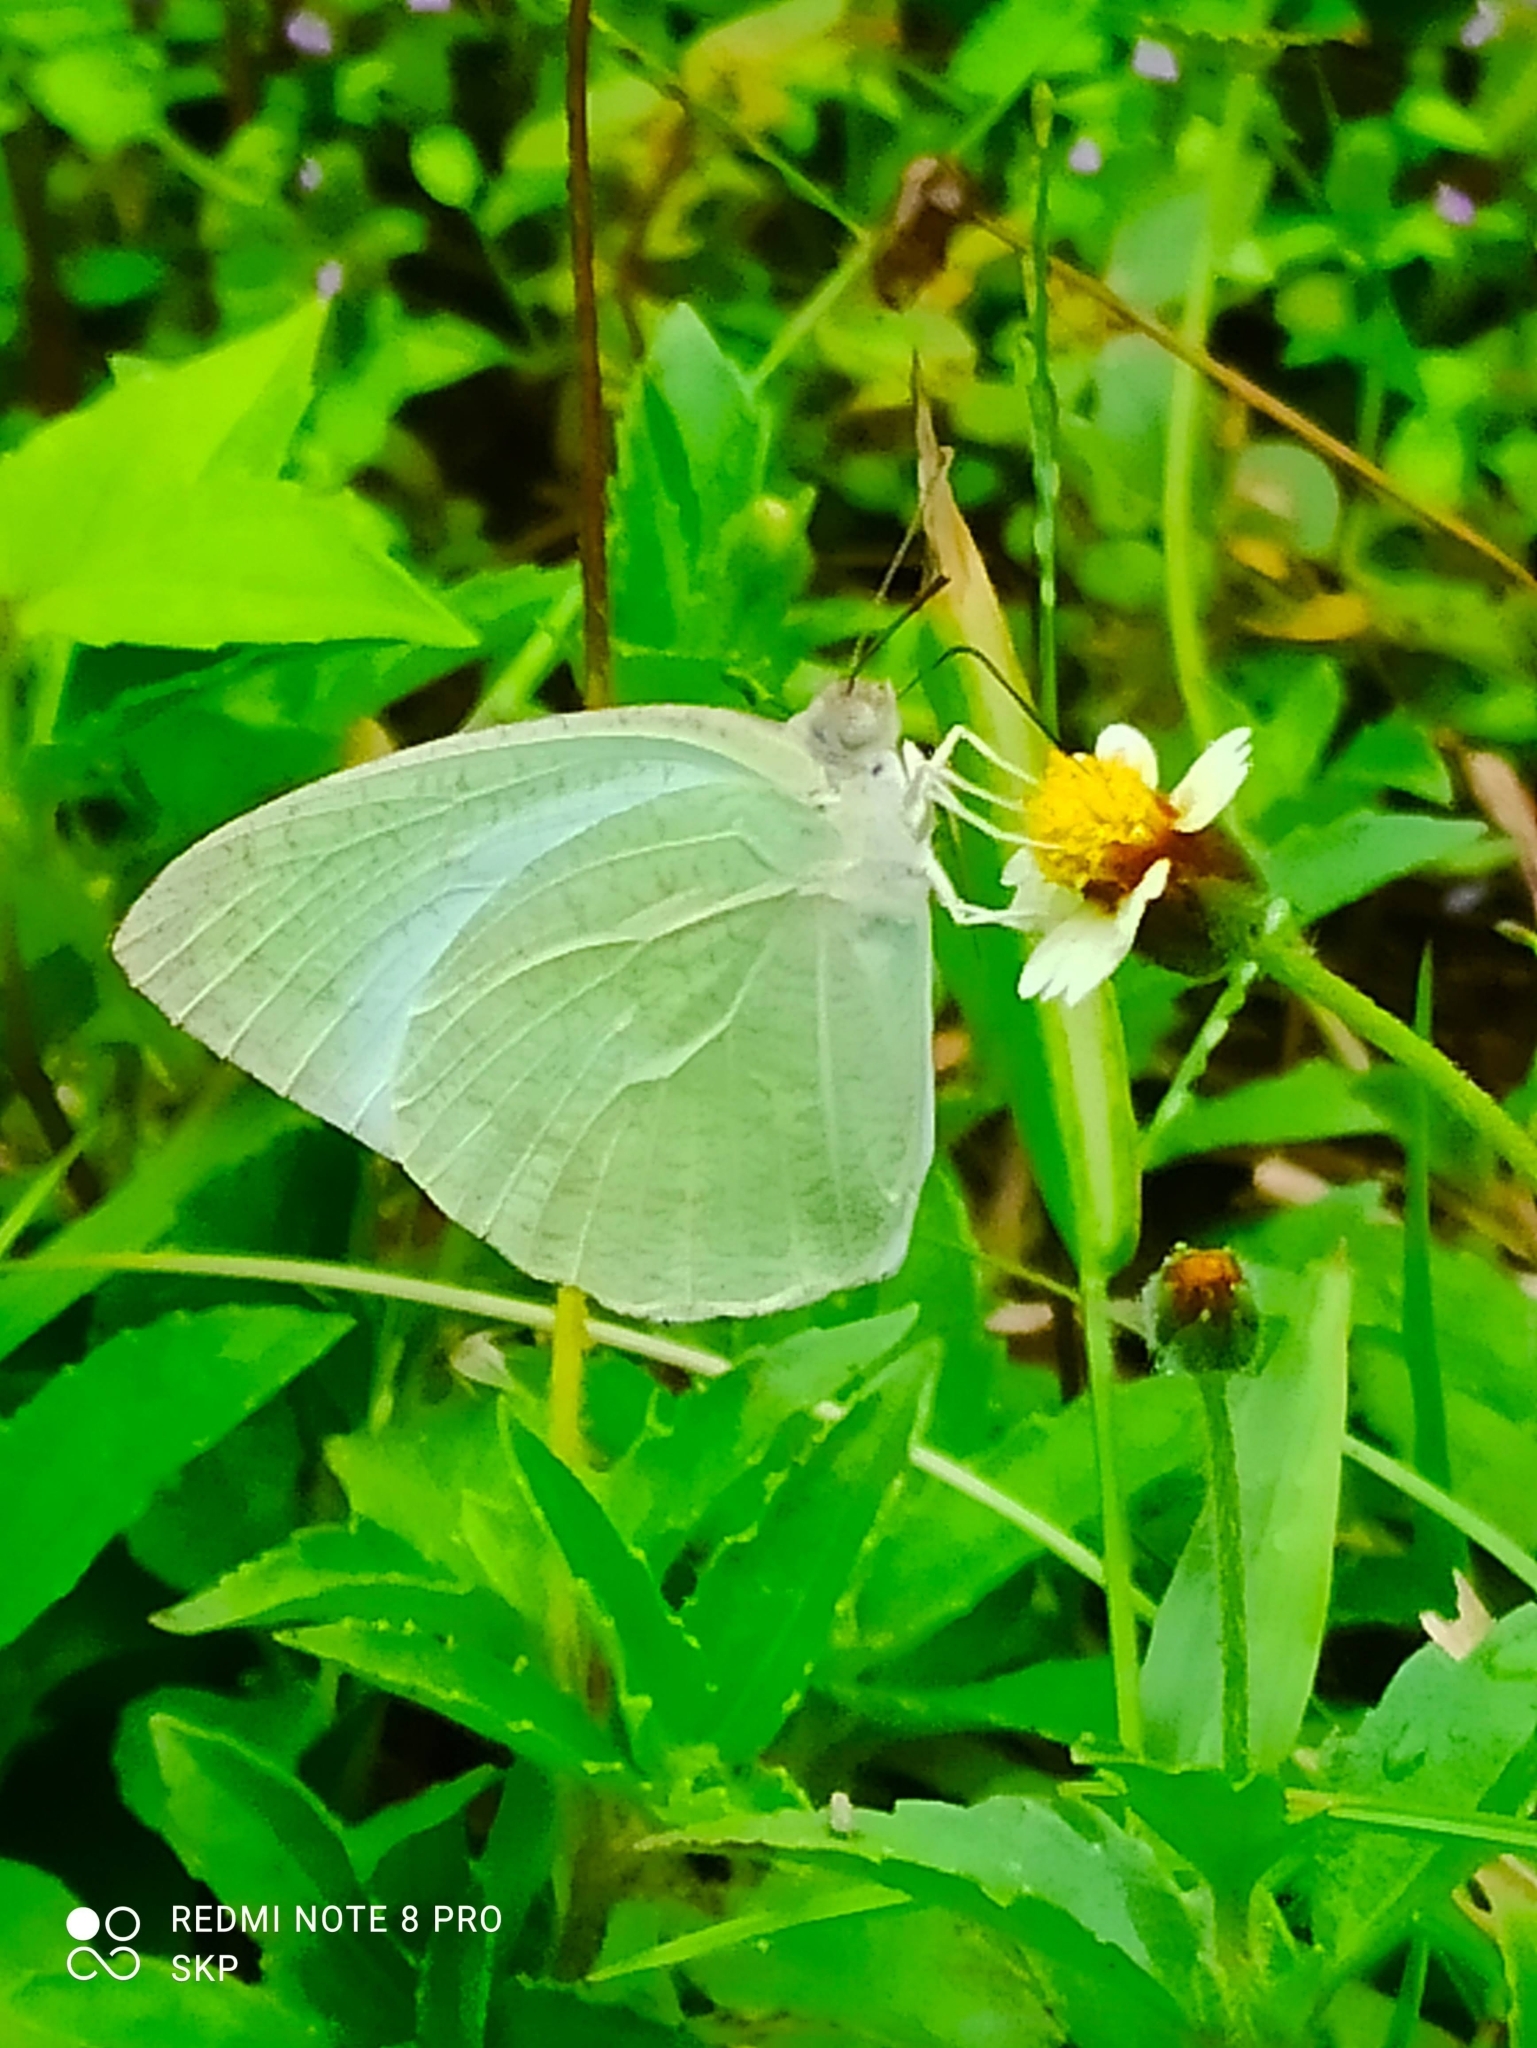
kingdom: Animalia
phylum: Arthropoda
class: Insecta
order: Lepidoptera
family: Pieridae
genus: Catopsilia
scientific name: Catopsilia pyranthe
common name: Mottled emigrant
